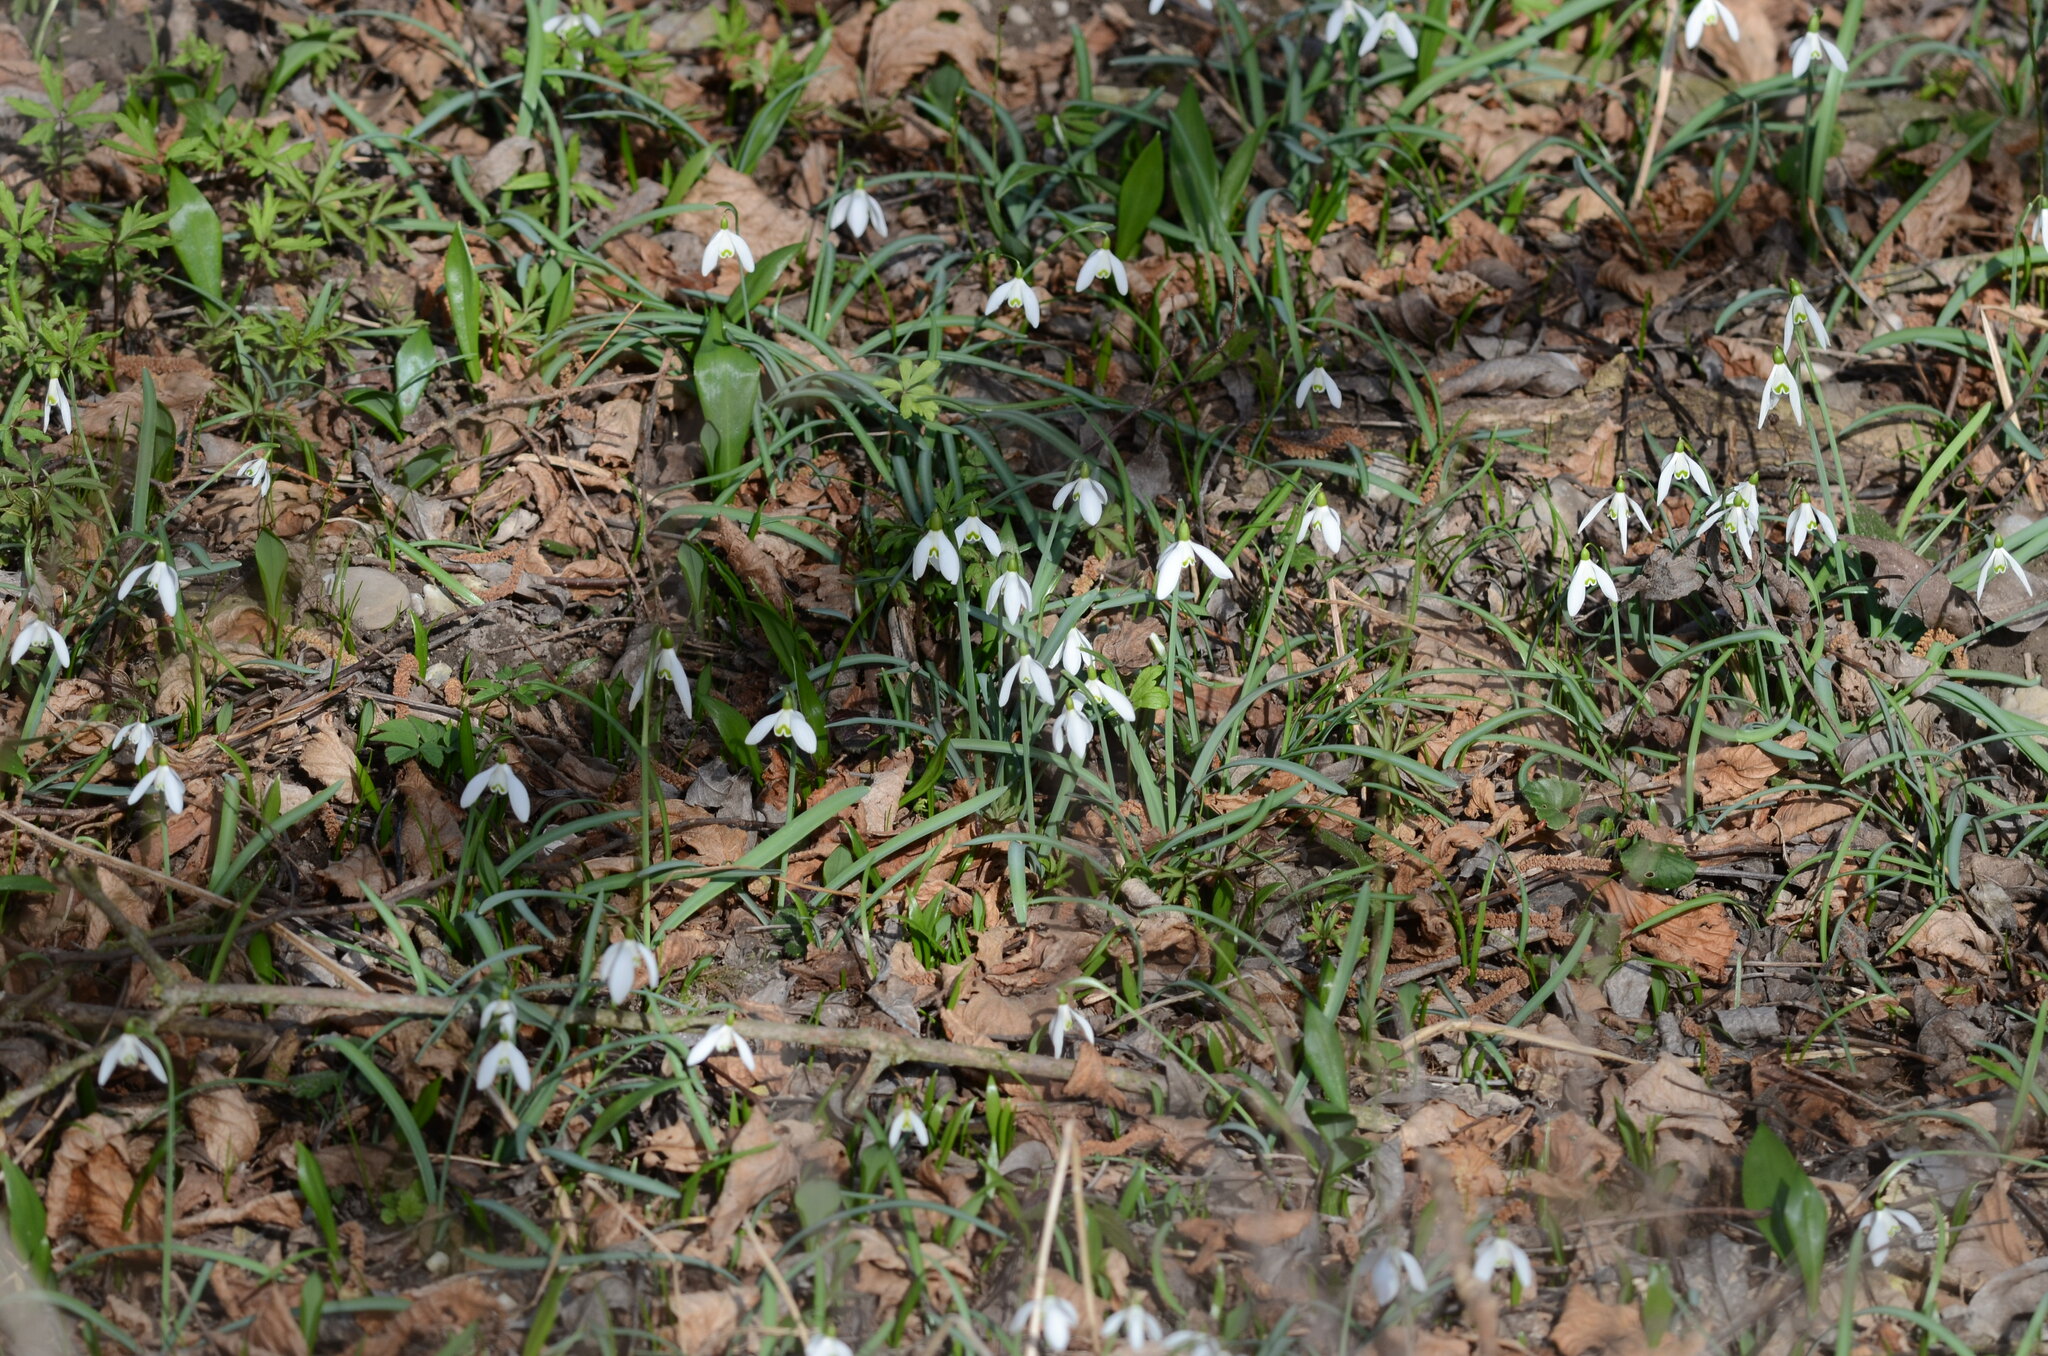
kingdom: Plantae
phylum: Tracheophyta
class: Liliopsida
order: Asparagales
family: Amaryllidaceae
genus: Galanthus
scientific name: Galanthus nivalis
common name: Snowdrop
